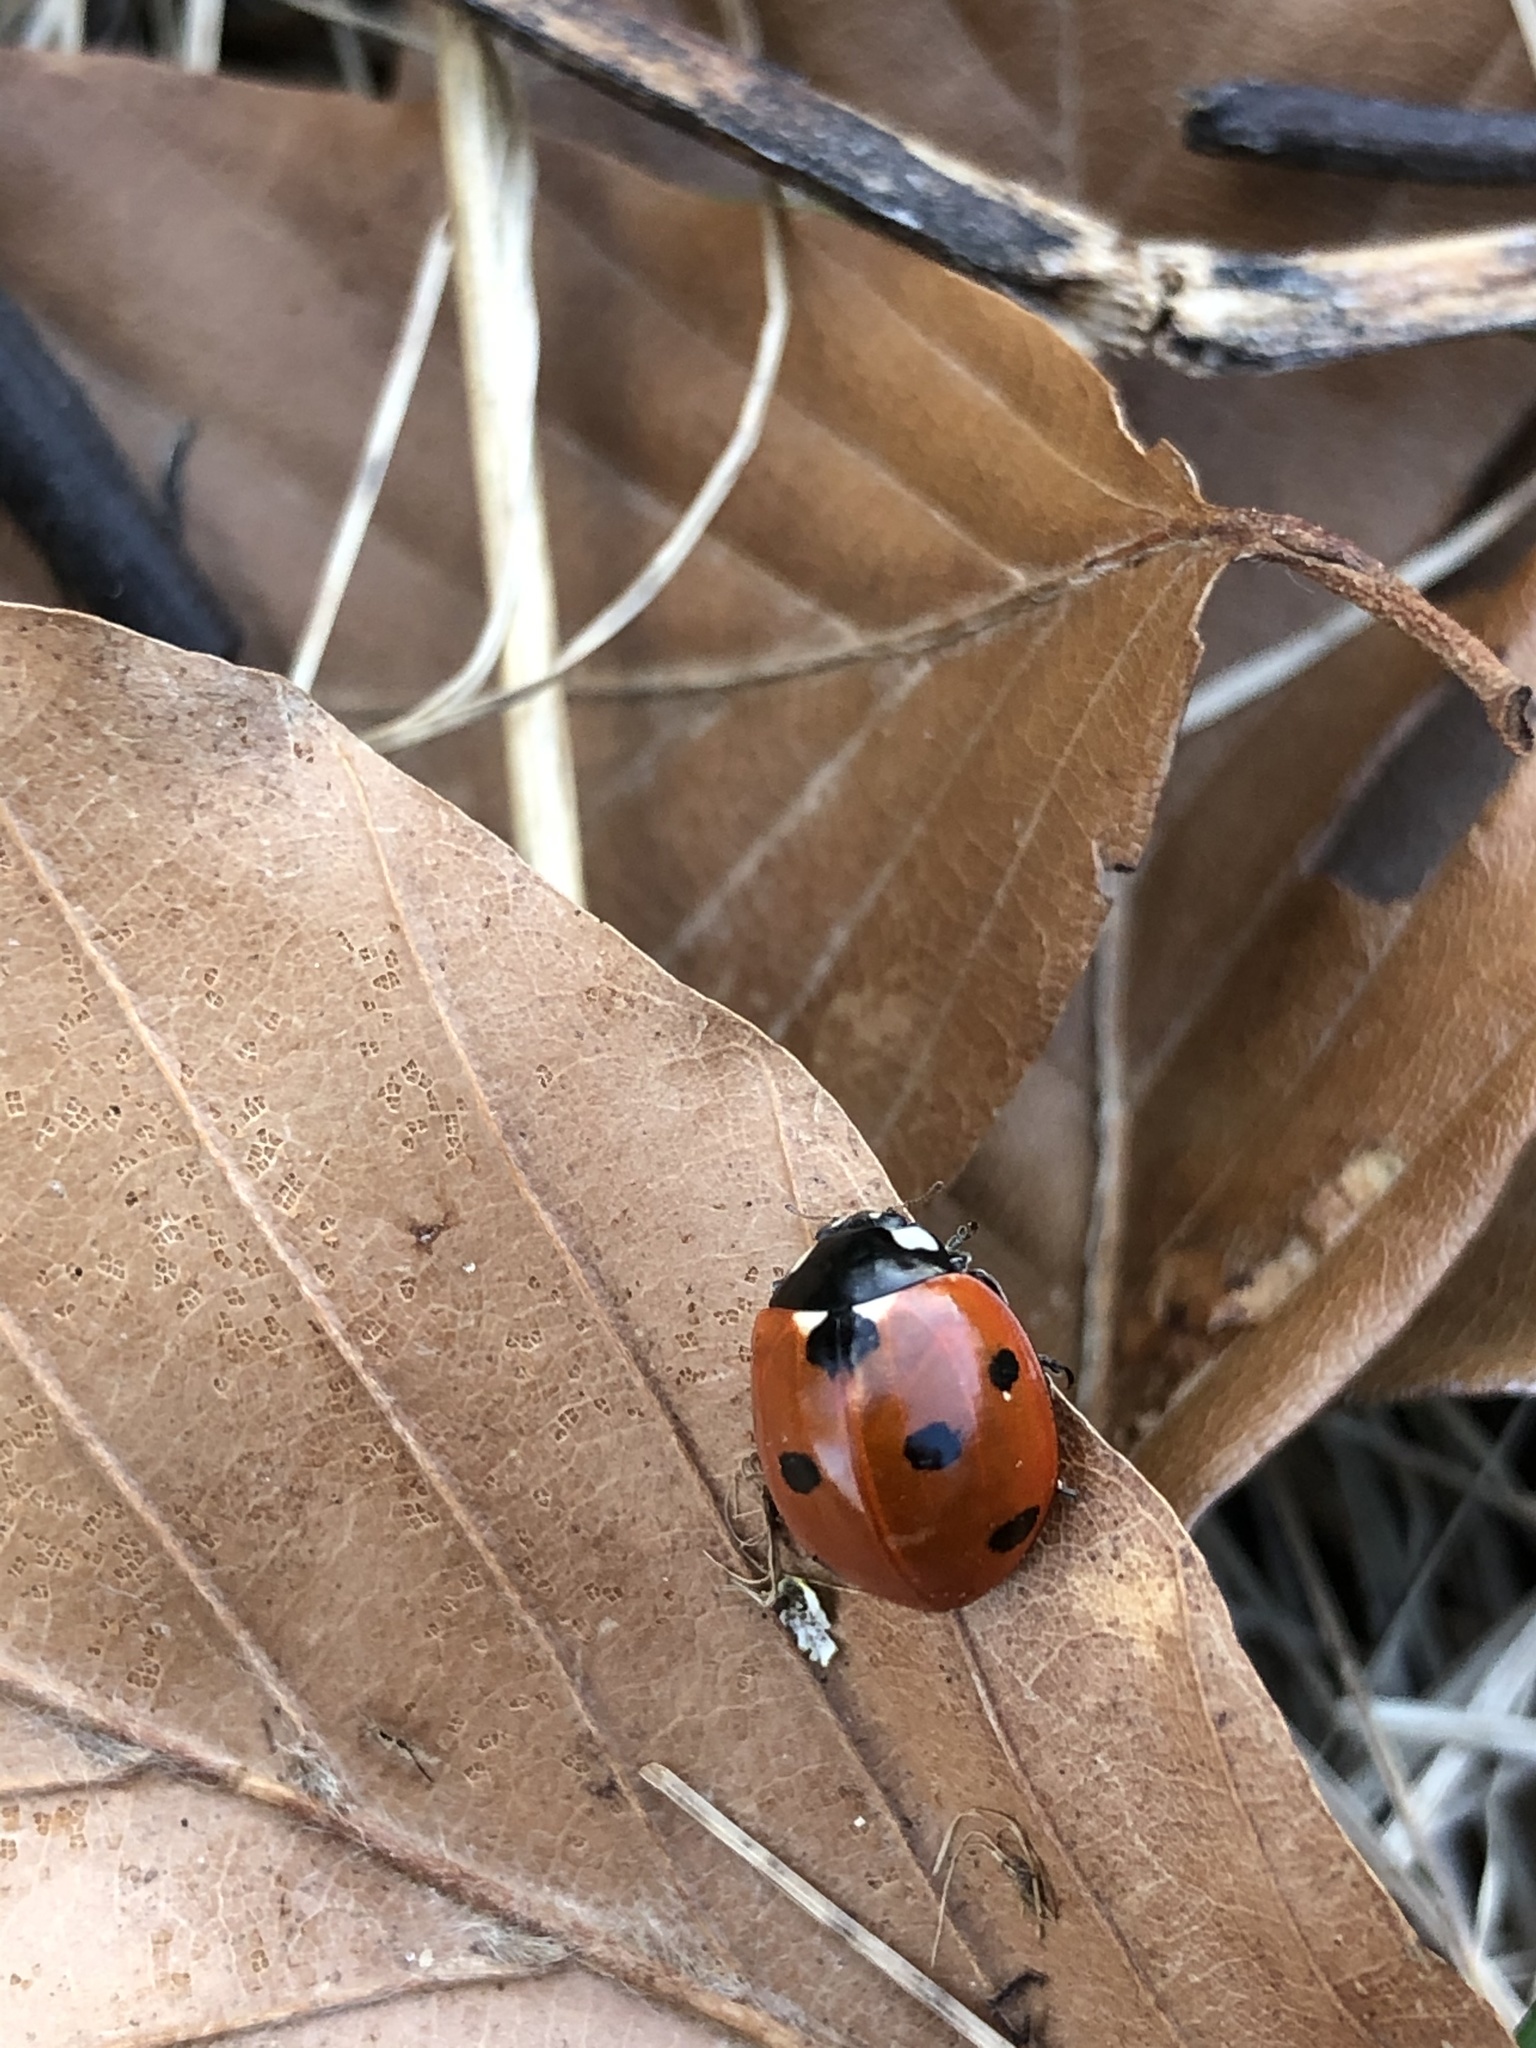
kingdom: Animalia
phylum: Arthropoda
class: Insecta
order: Coleoptera
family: Coccinellidae
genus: Coccinella
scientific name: Coccinella septempunctata
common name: Sevenspotted lady beetle
